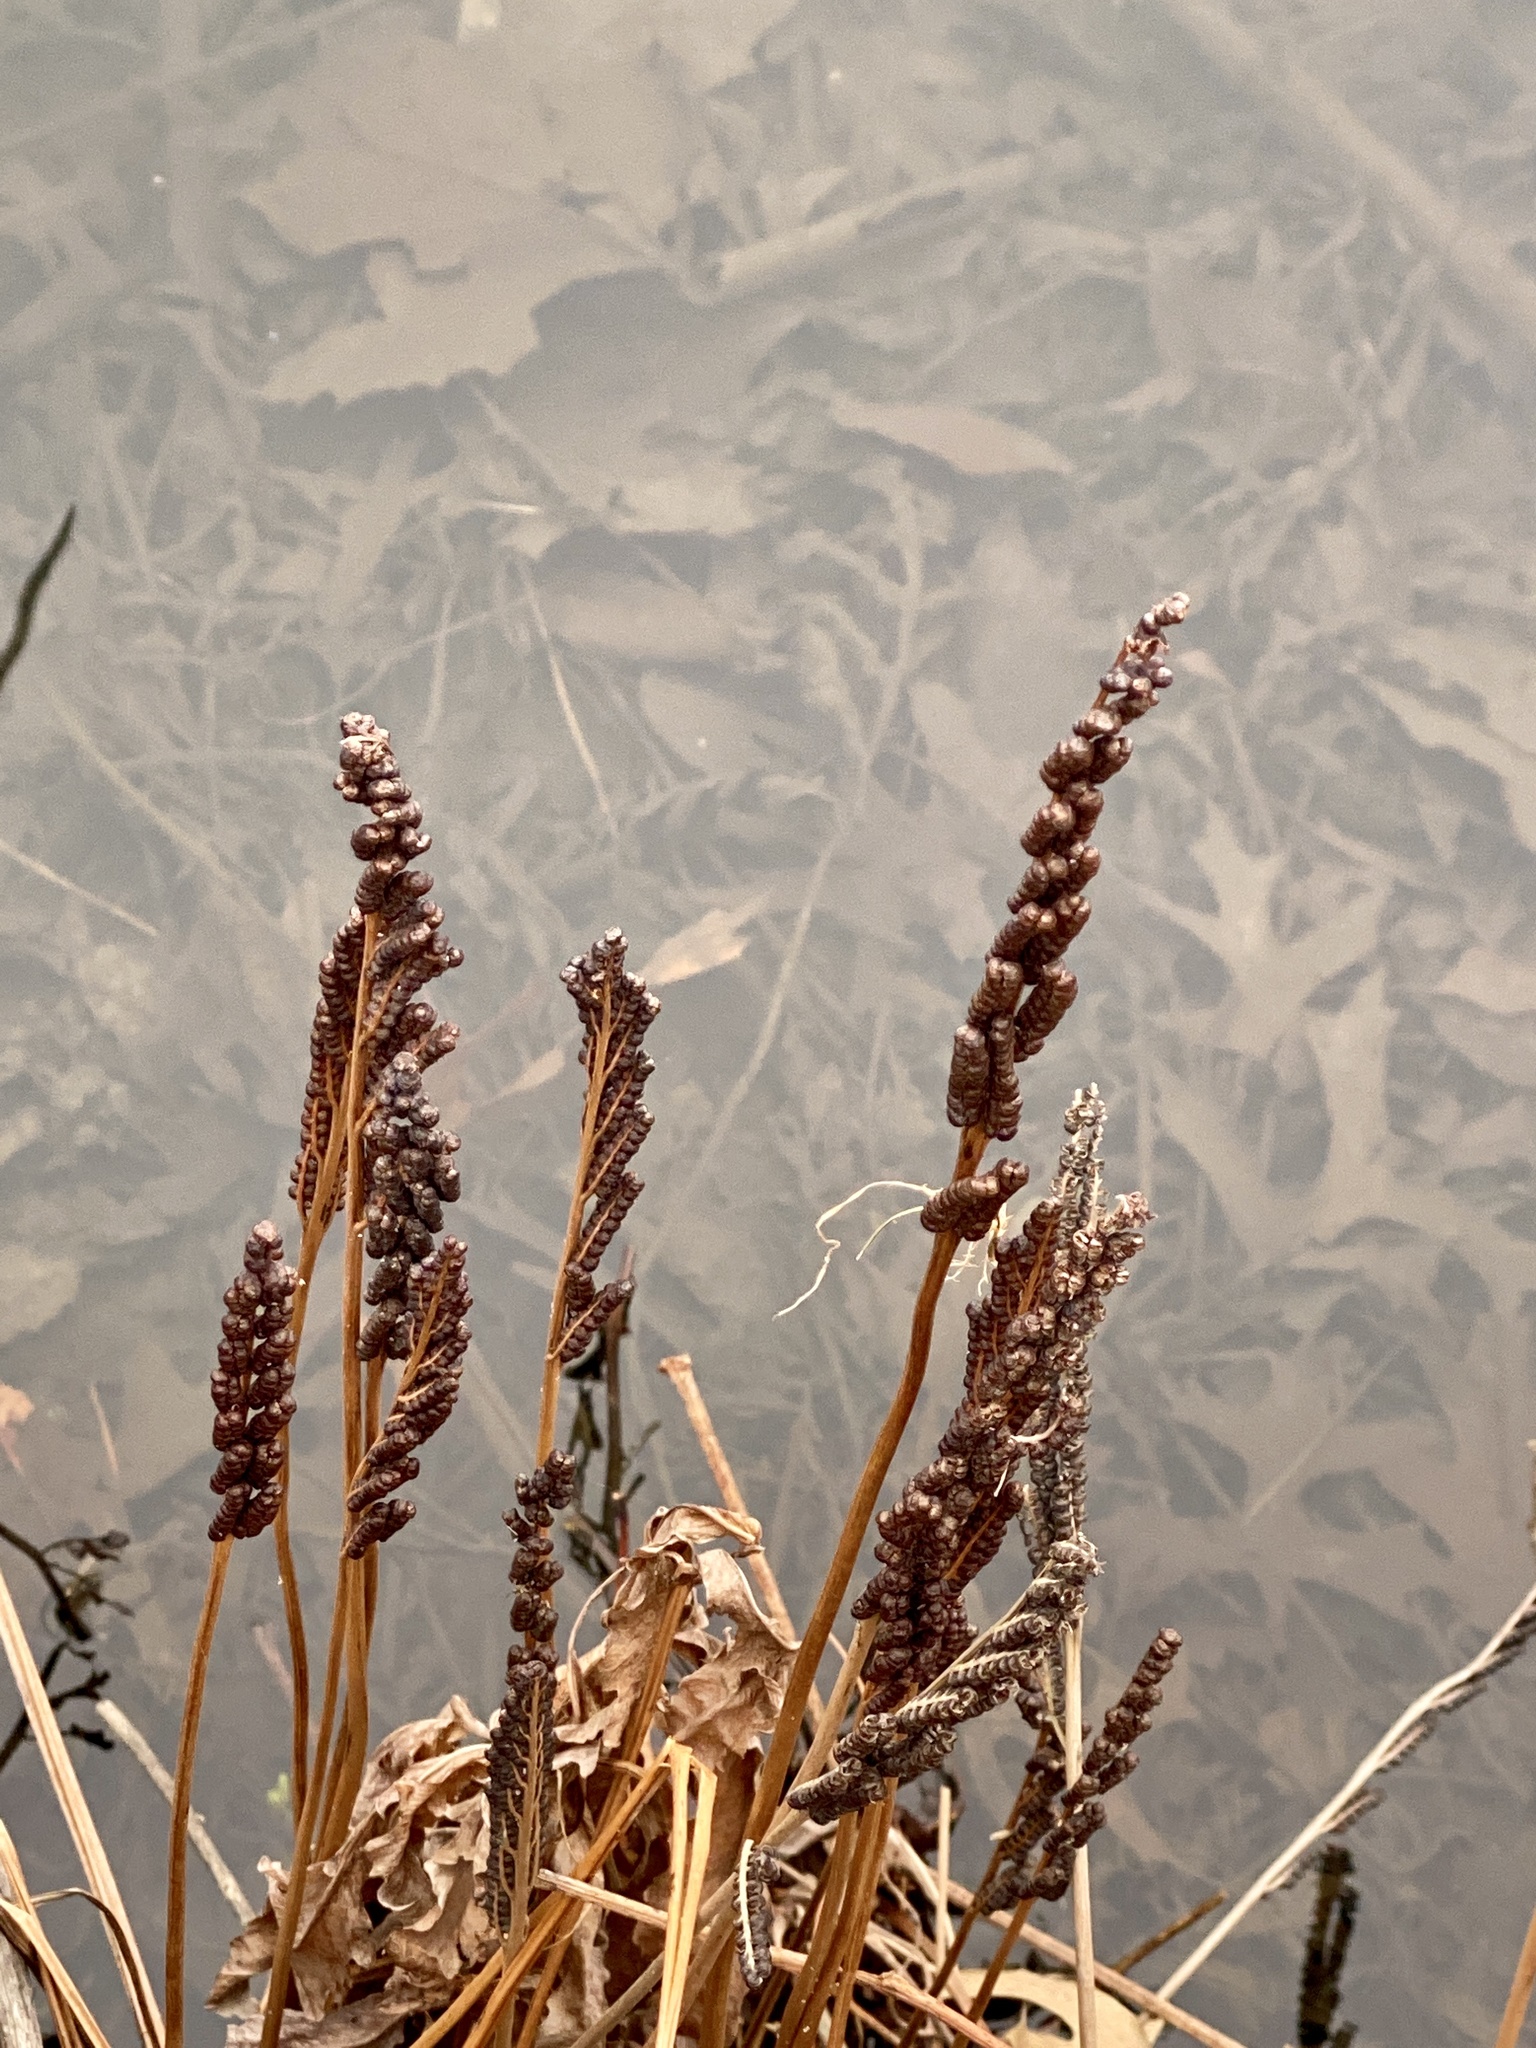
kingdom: Plantae
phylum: Tracheophyta
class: Polypodiopsida
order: Polypodiales
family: Onocleaceae
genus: Onoclea
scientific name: Onoclea sensibilis
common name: Sensitive fern
